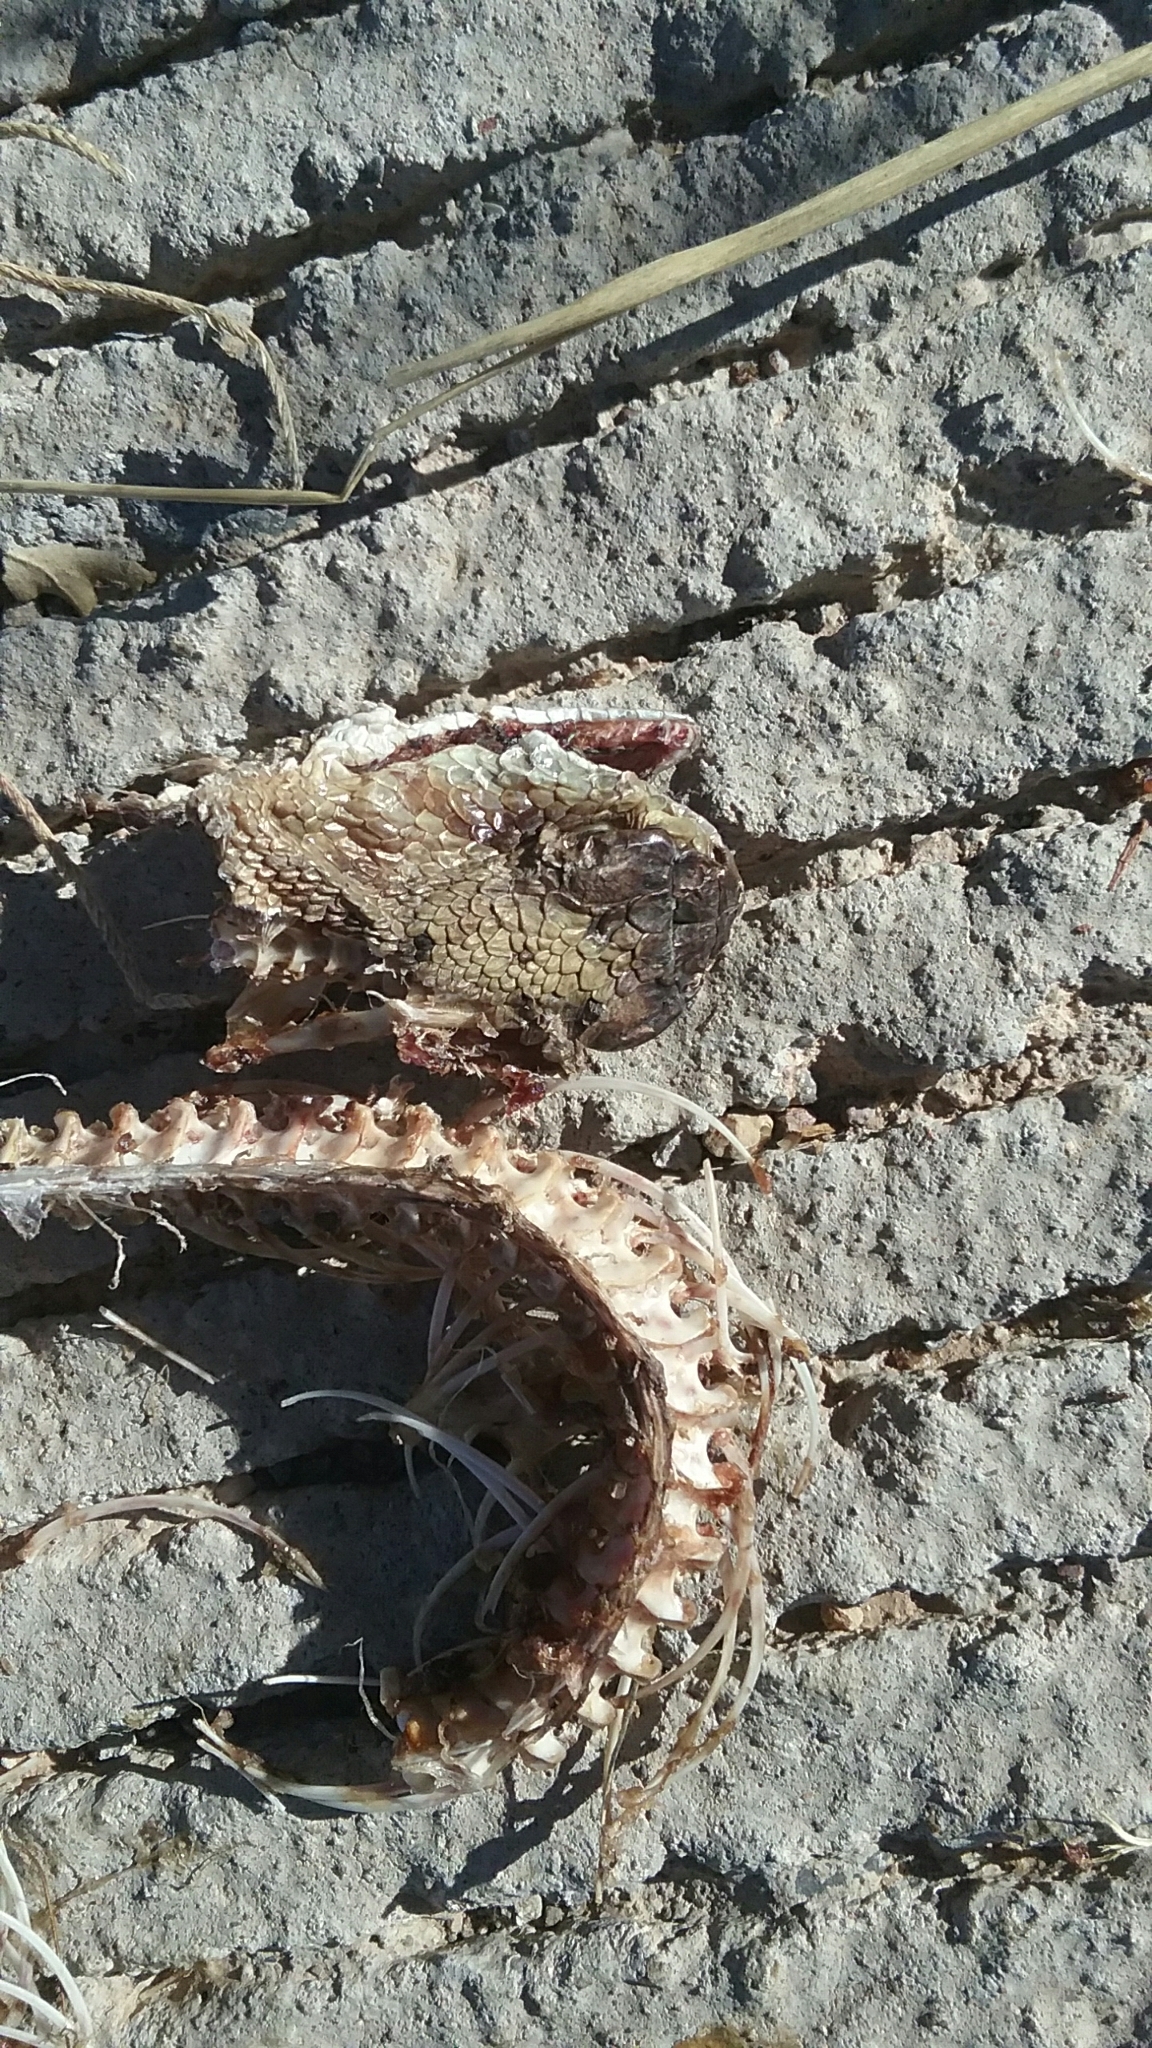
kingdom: Animalia
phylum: Chordata
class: Squamata
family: Viperidae
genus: Crotalus
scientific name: Crotalus molossus
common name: Black tailed rattlesnake
